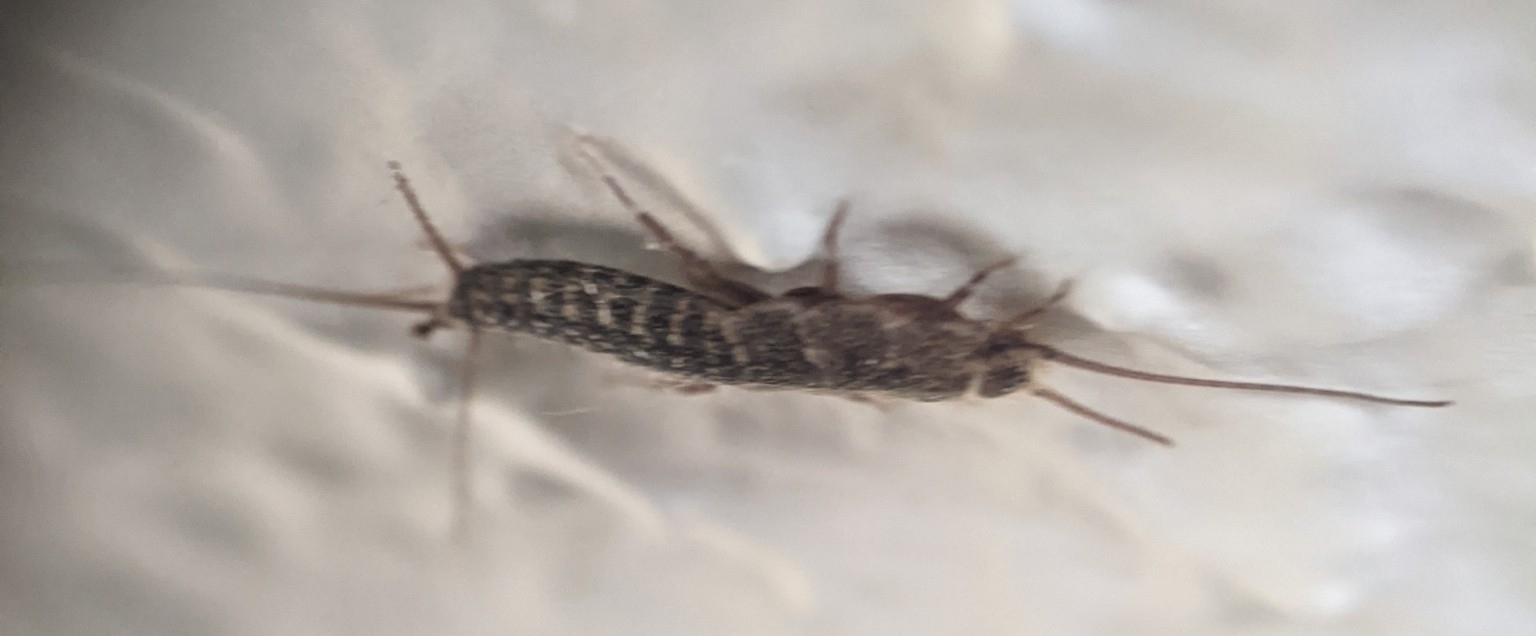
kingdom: Animalia
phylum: Arthropoda
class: Insecta
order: Zygentoma
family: Lepismatidae
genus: Ctenolepisma
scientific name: Ctenolepisma lineata
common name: Four-lined silverfish
